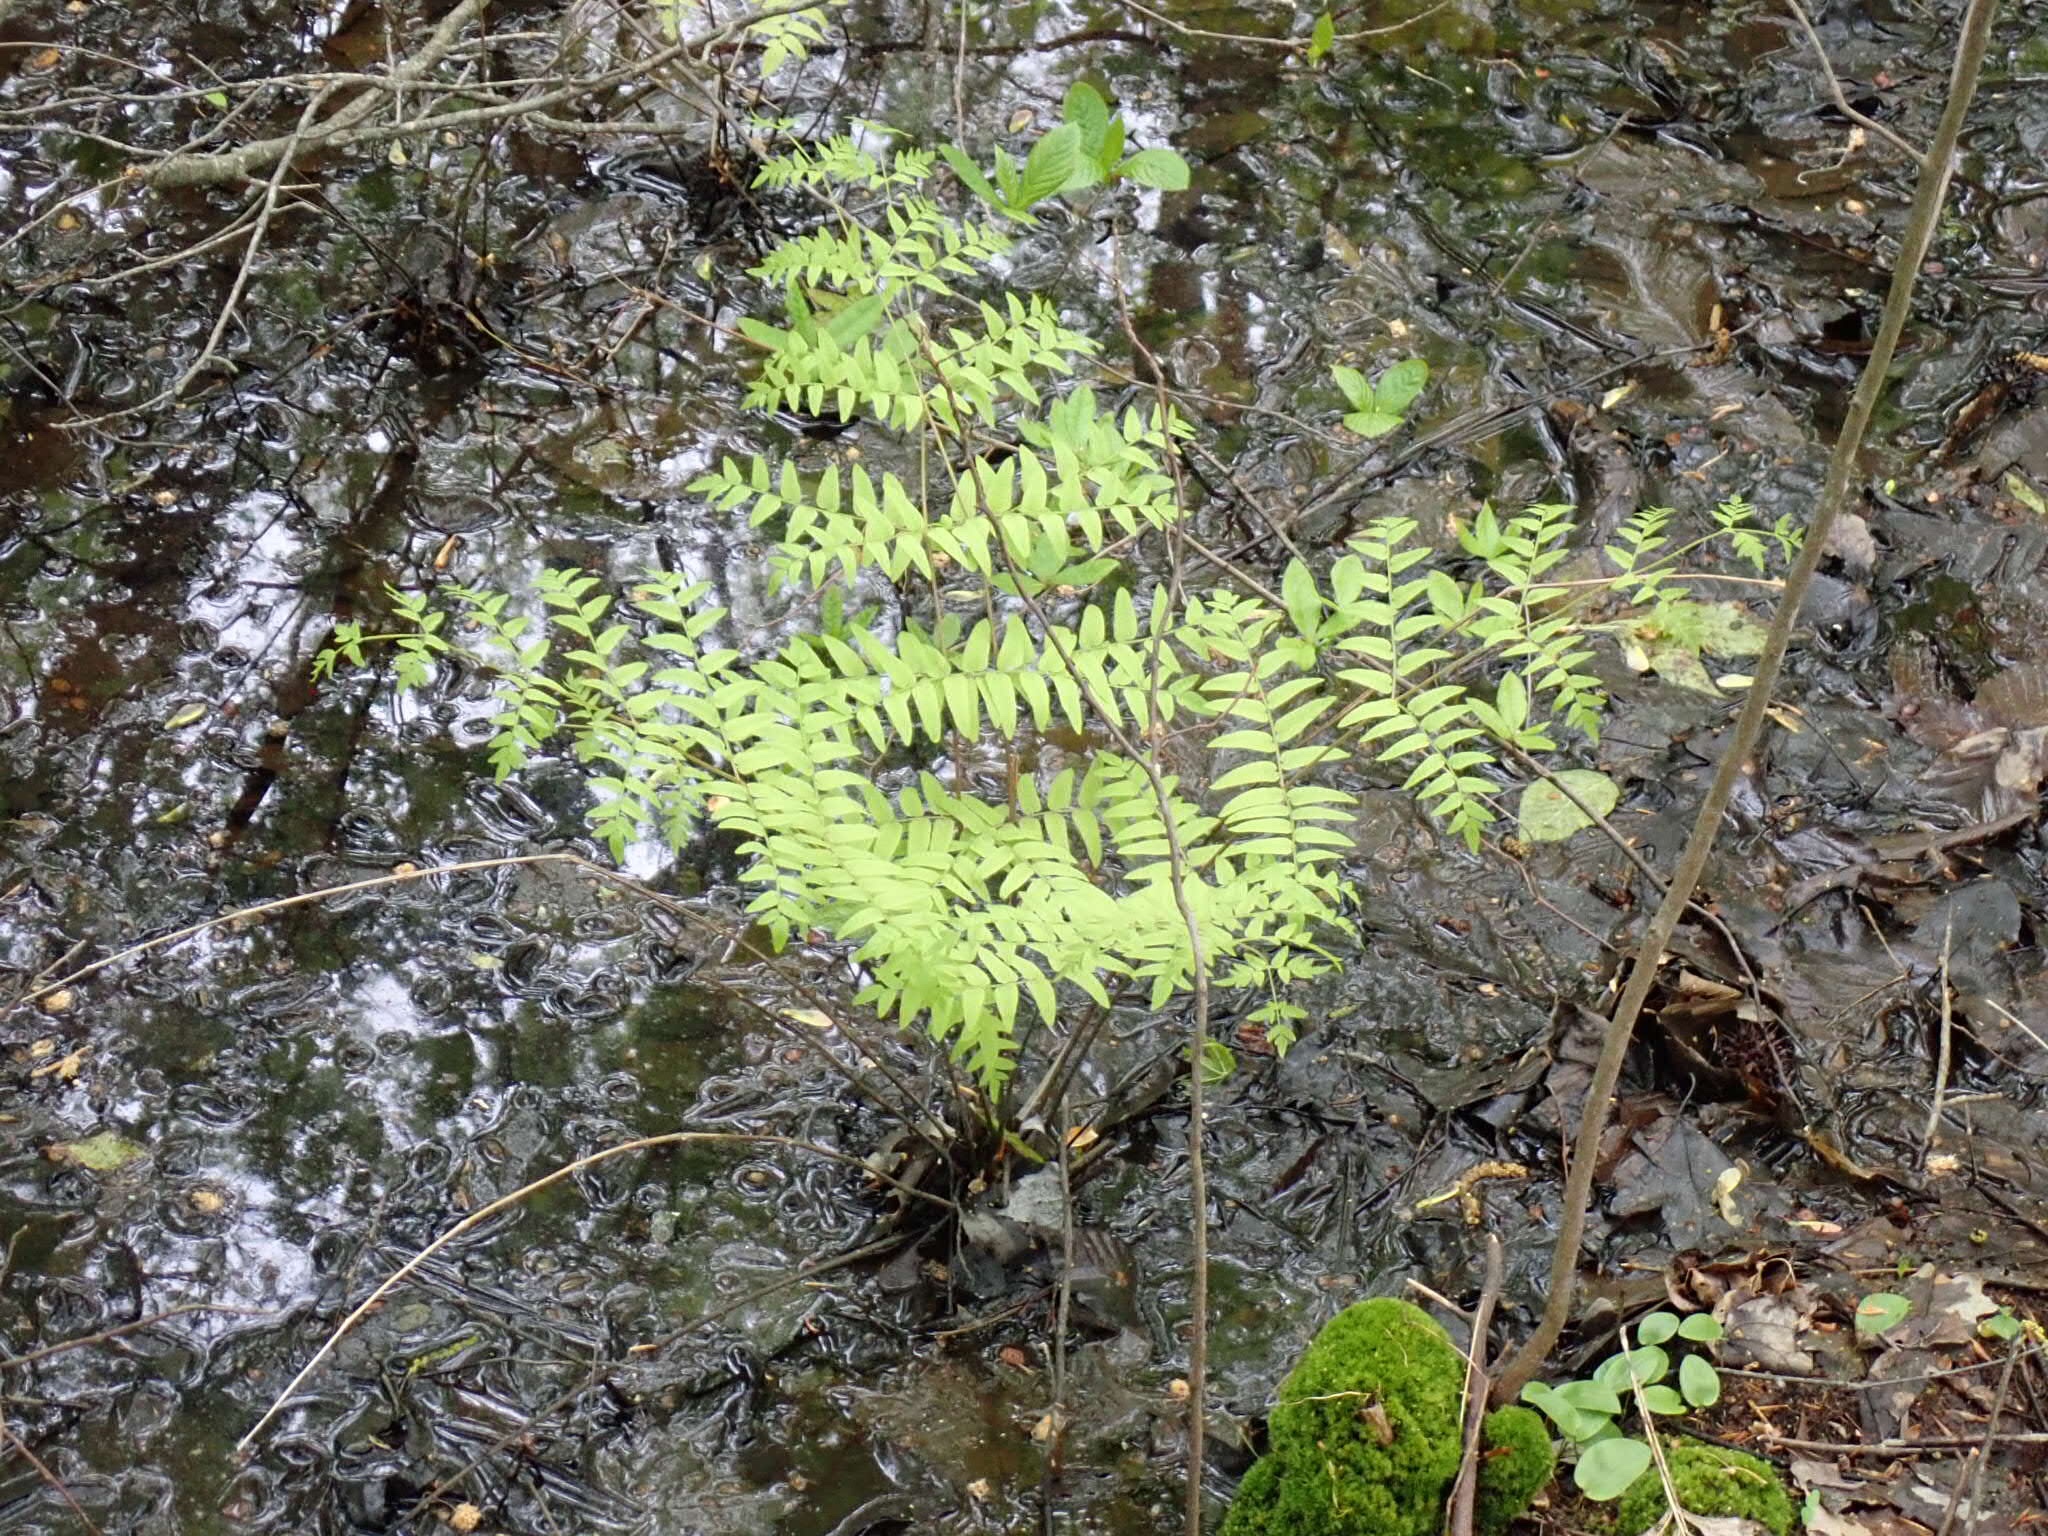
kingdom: Plantae
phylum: Tracheophyta
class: Polypodiopsida
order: Osmundales
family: Osmundaceae
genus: Osmunda
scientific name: Osmunda spectabilis
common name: American royal fern
